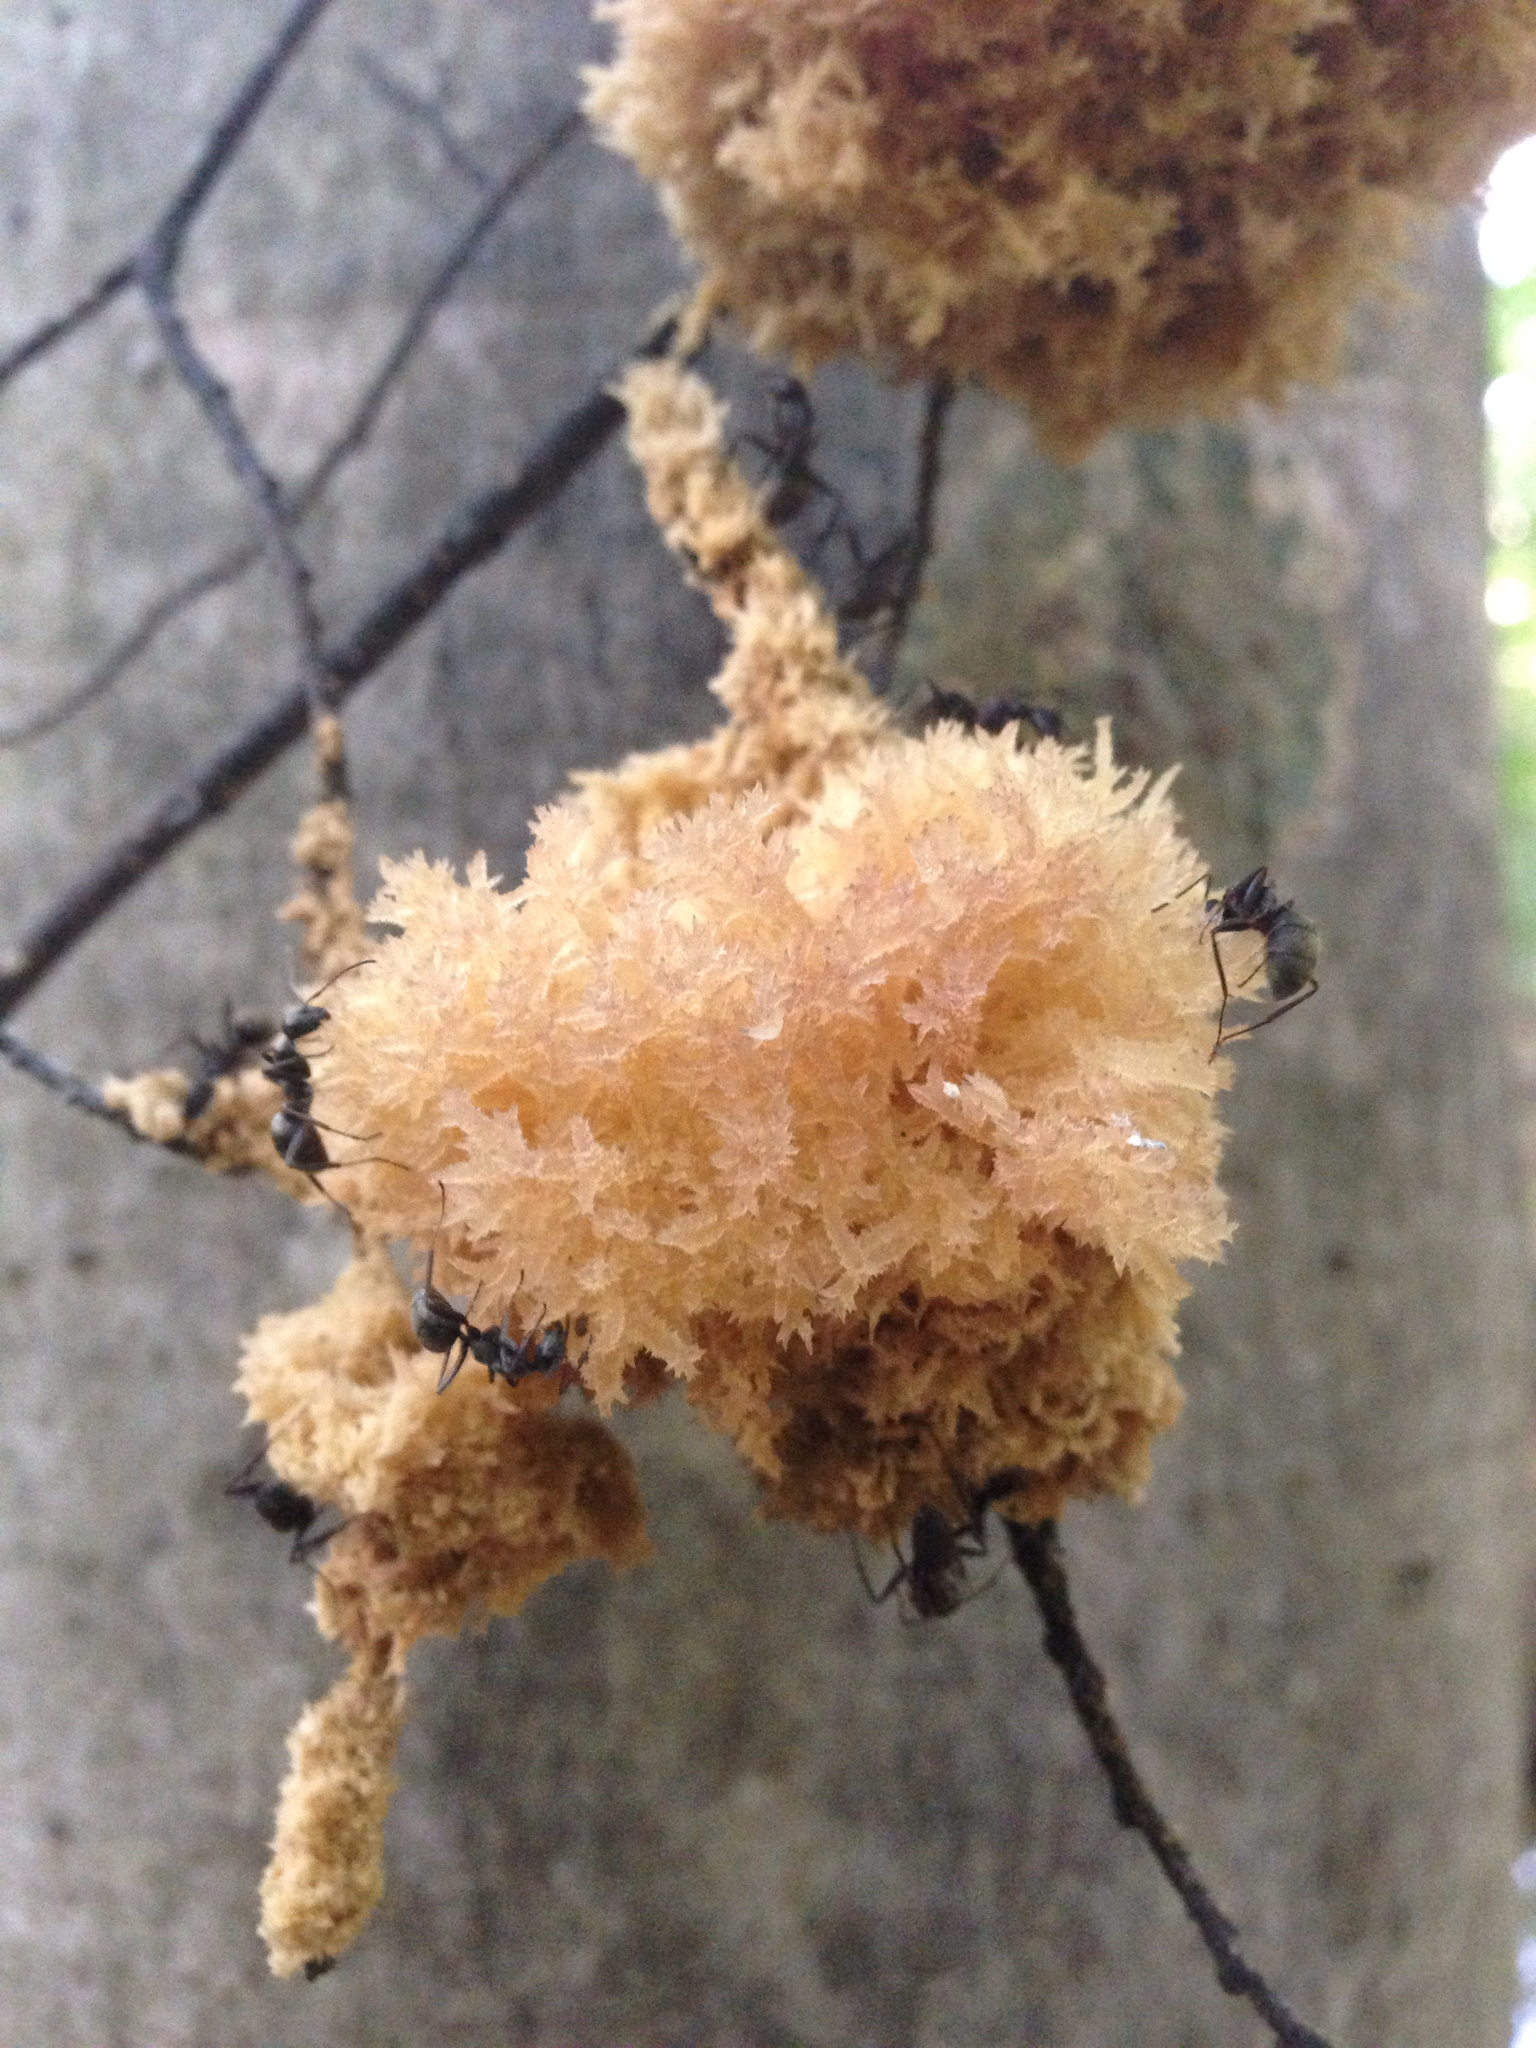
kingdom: Fungi
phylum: Ascomycota
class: Dothideomycetes
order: Capnodiales
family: Capnodiaceae
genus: Scorias
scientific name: Scorias spongiosa
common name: Black sooty mold
